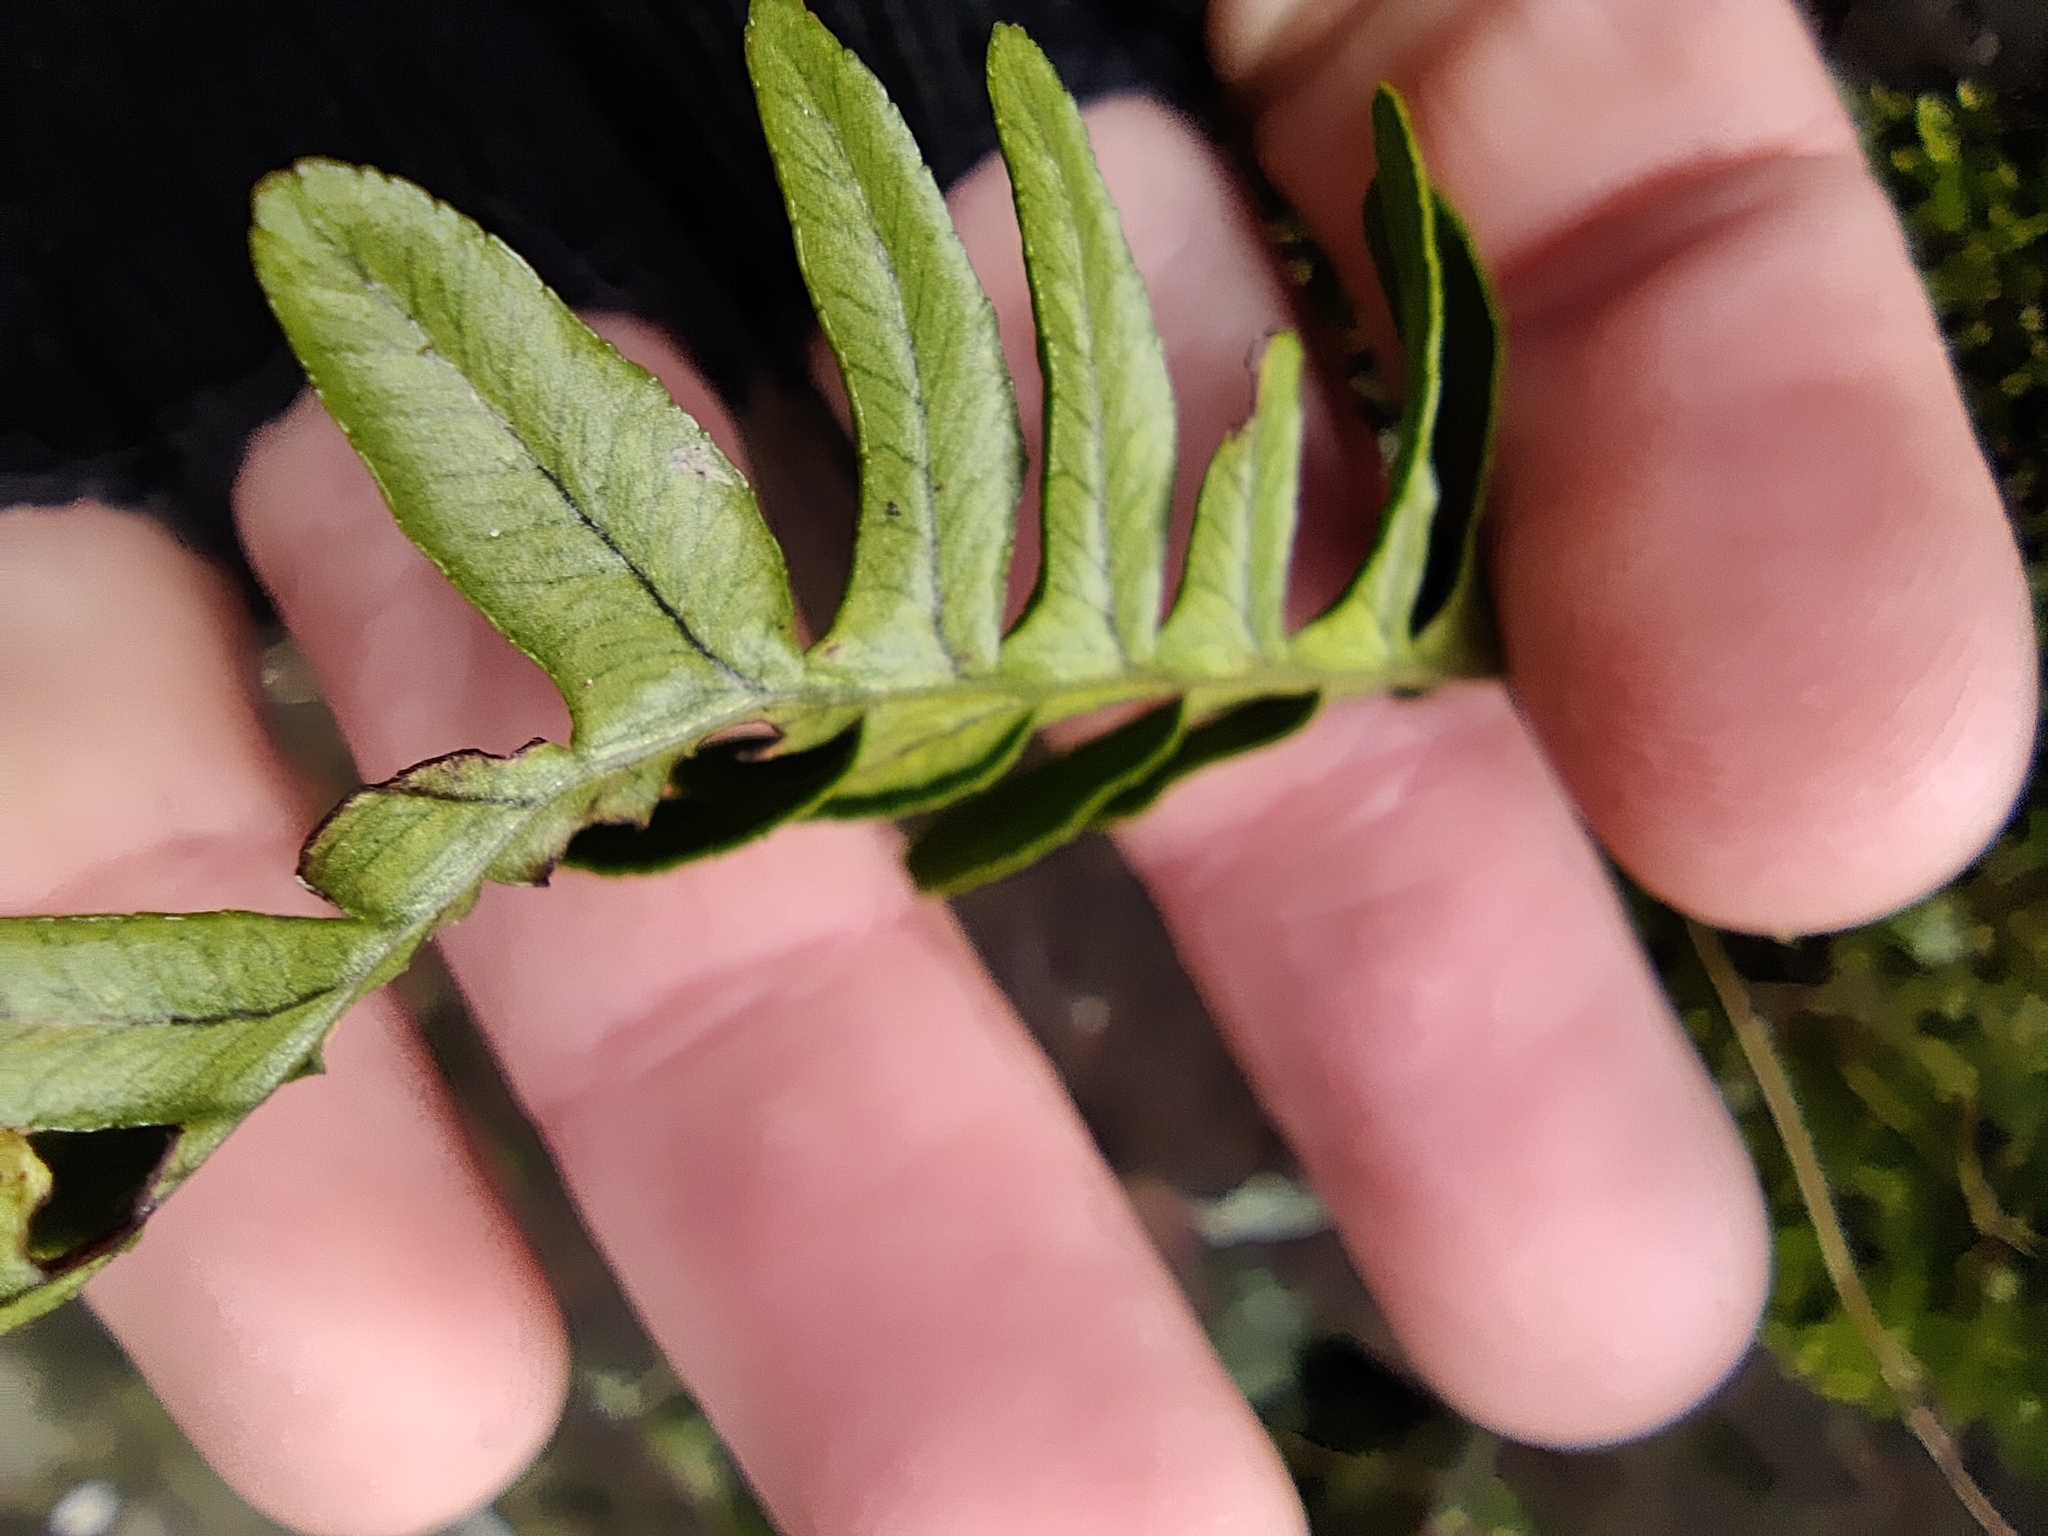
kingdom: Plantae
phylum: Tracheophyta
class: Polypodiopsida
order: Polypodiales
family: Polypodiaceae
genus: Polypodium
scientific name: Polypodium vulgare
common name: Common polypody
